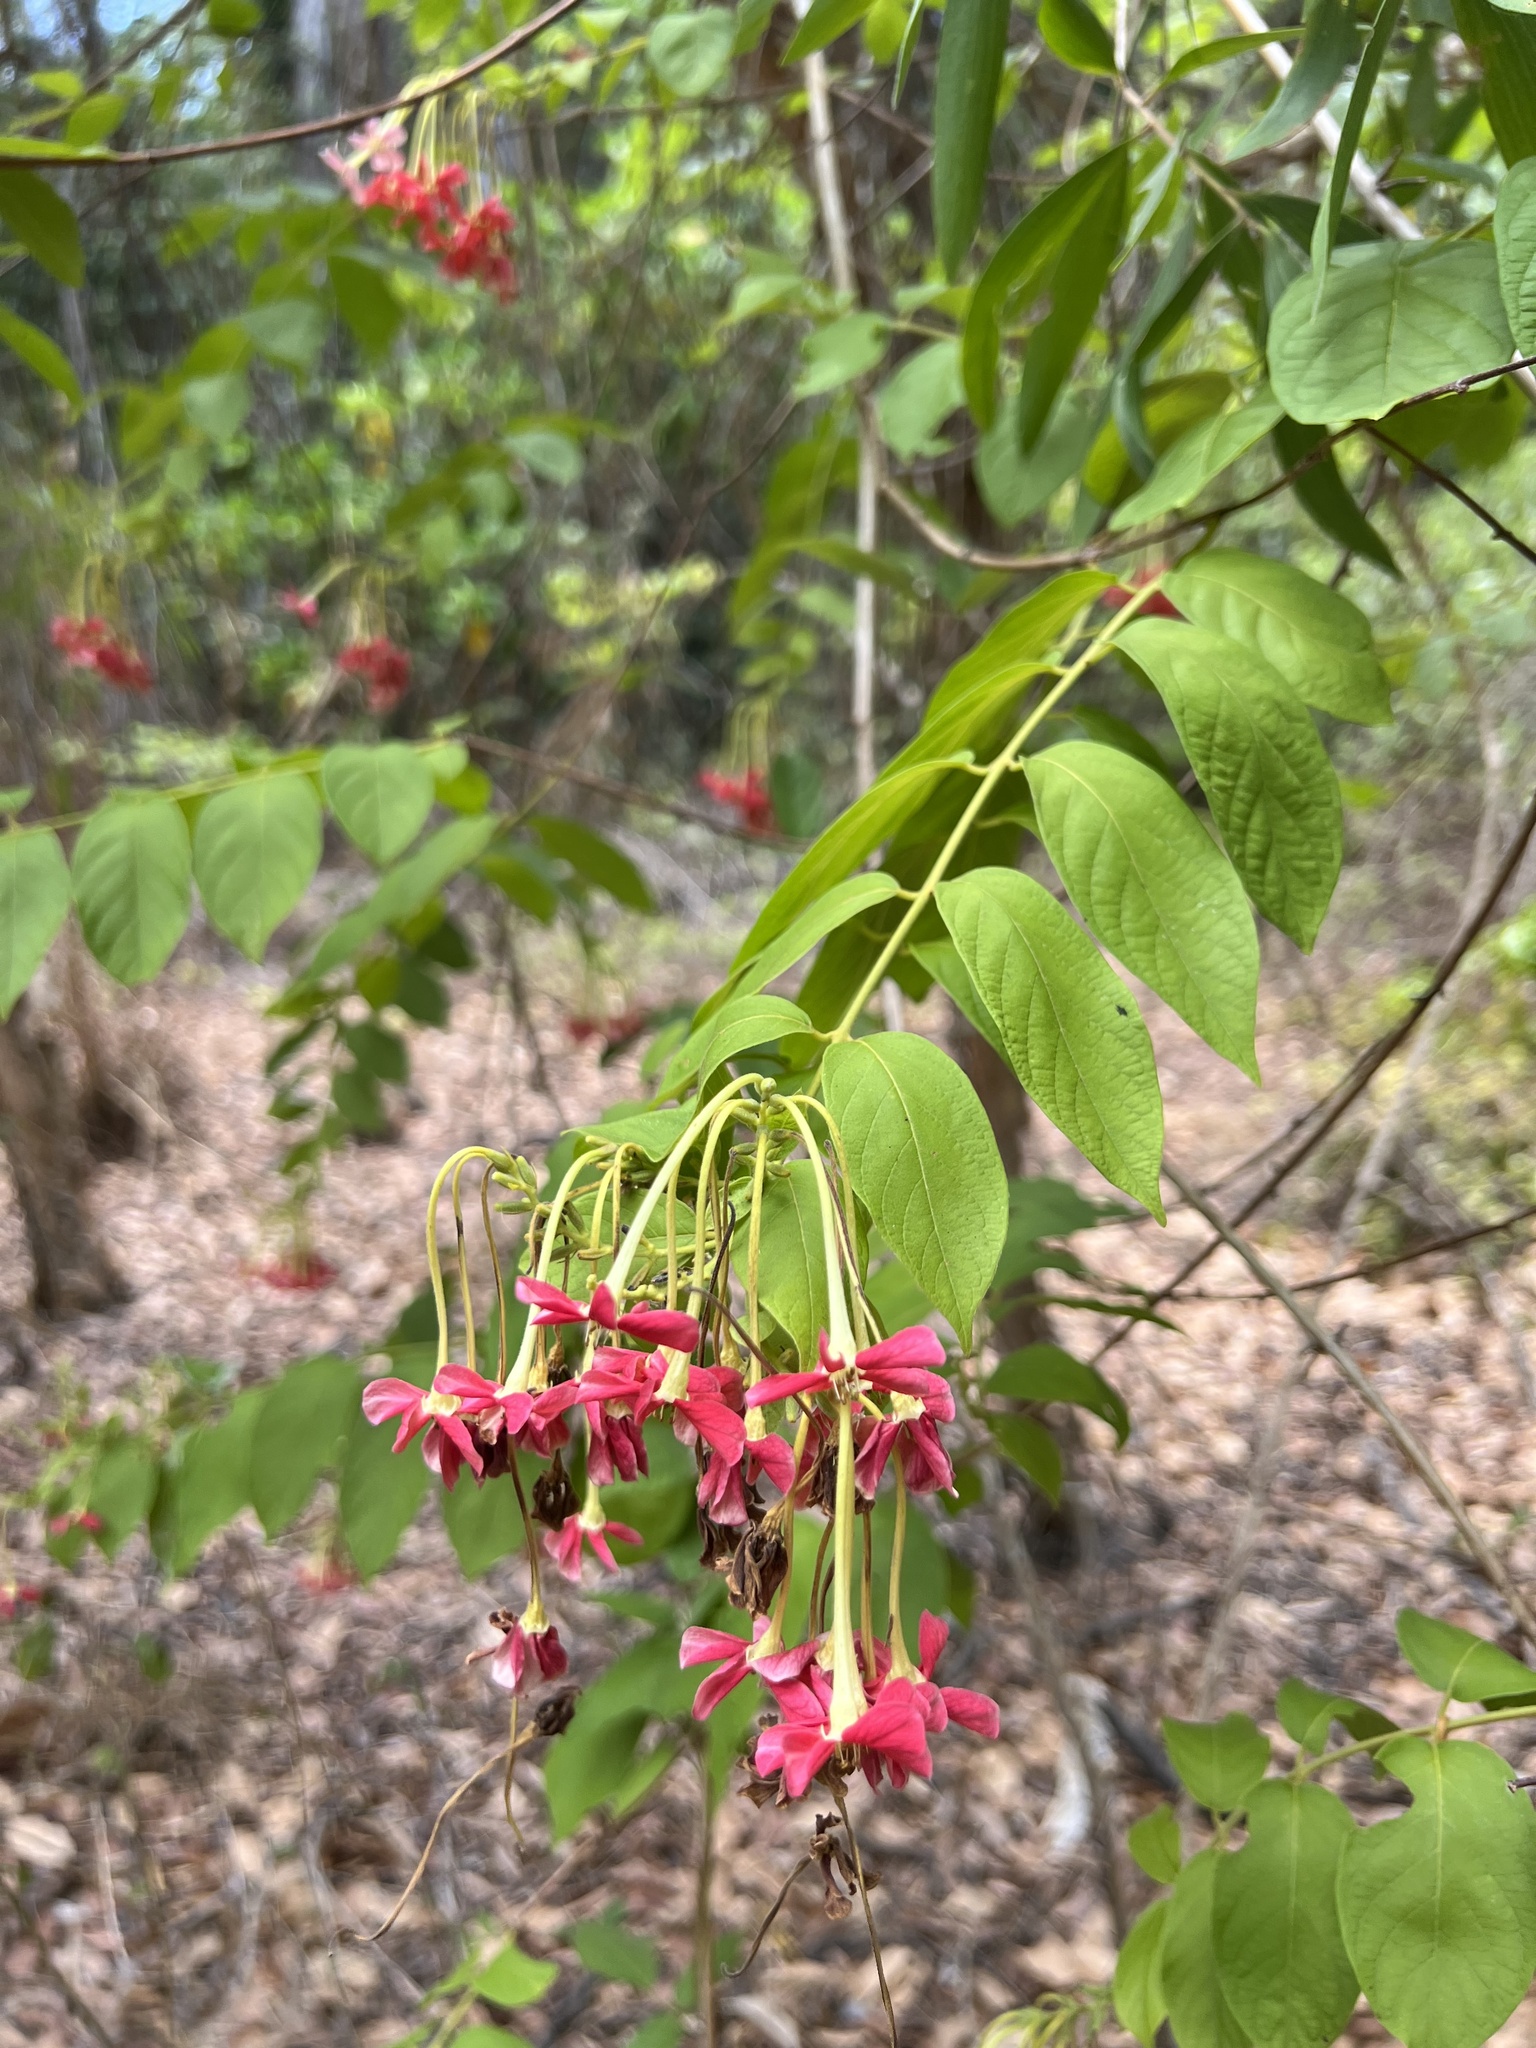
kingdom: Plantae
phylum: Tracheophyta
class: Magnoliopsida
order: Myrtales
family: Combretaceae
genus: Combretum
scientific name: Combretum indicum
